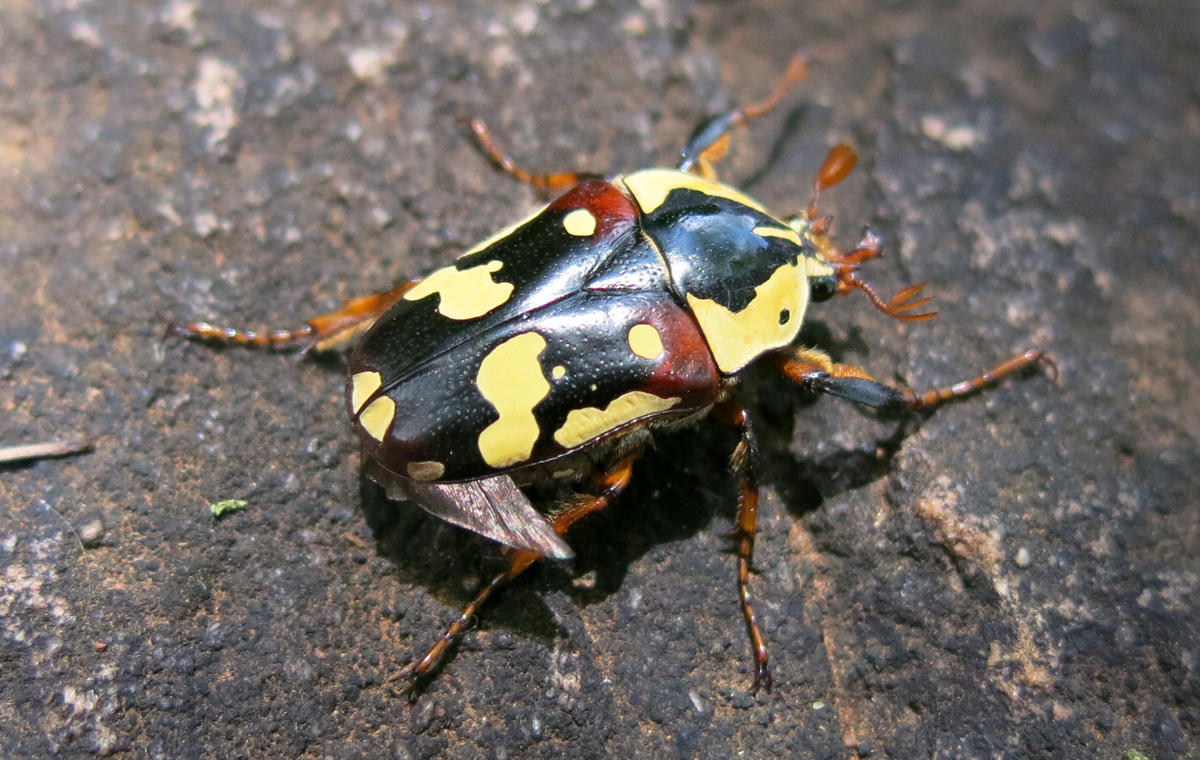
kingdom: Animalia
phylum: Arthropoda
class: Insecta
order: Coleoptera
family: Scarabaeidae
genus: Cheirolasia
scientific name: Cheirolasia burkei
